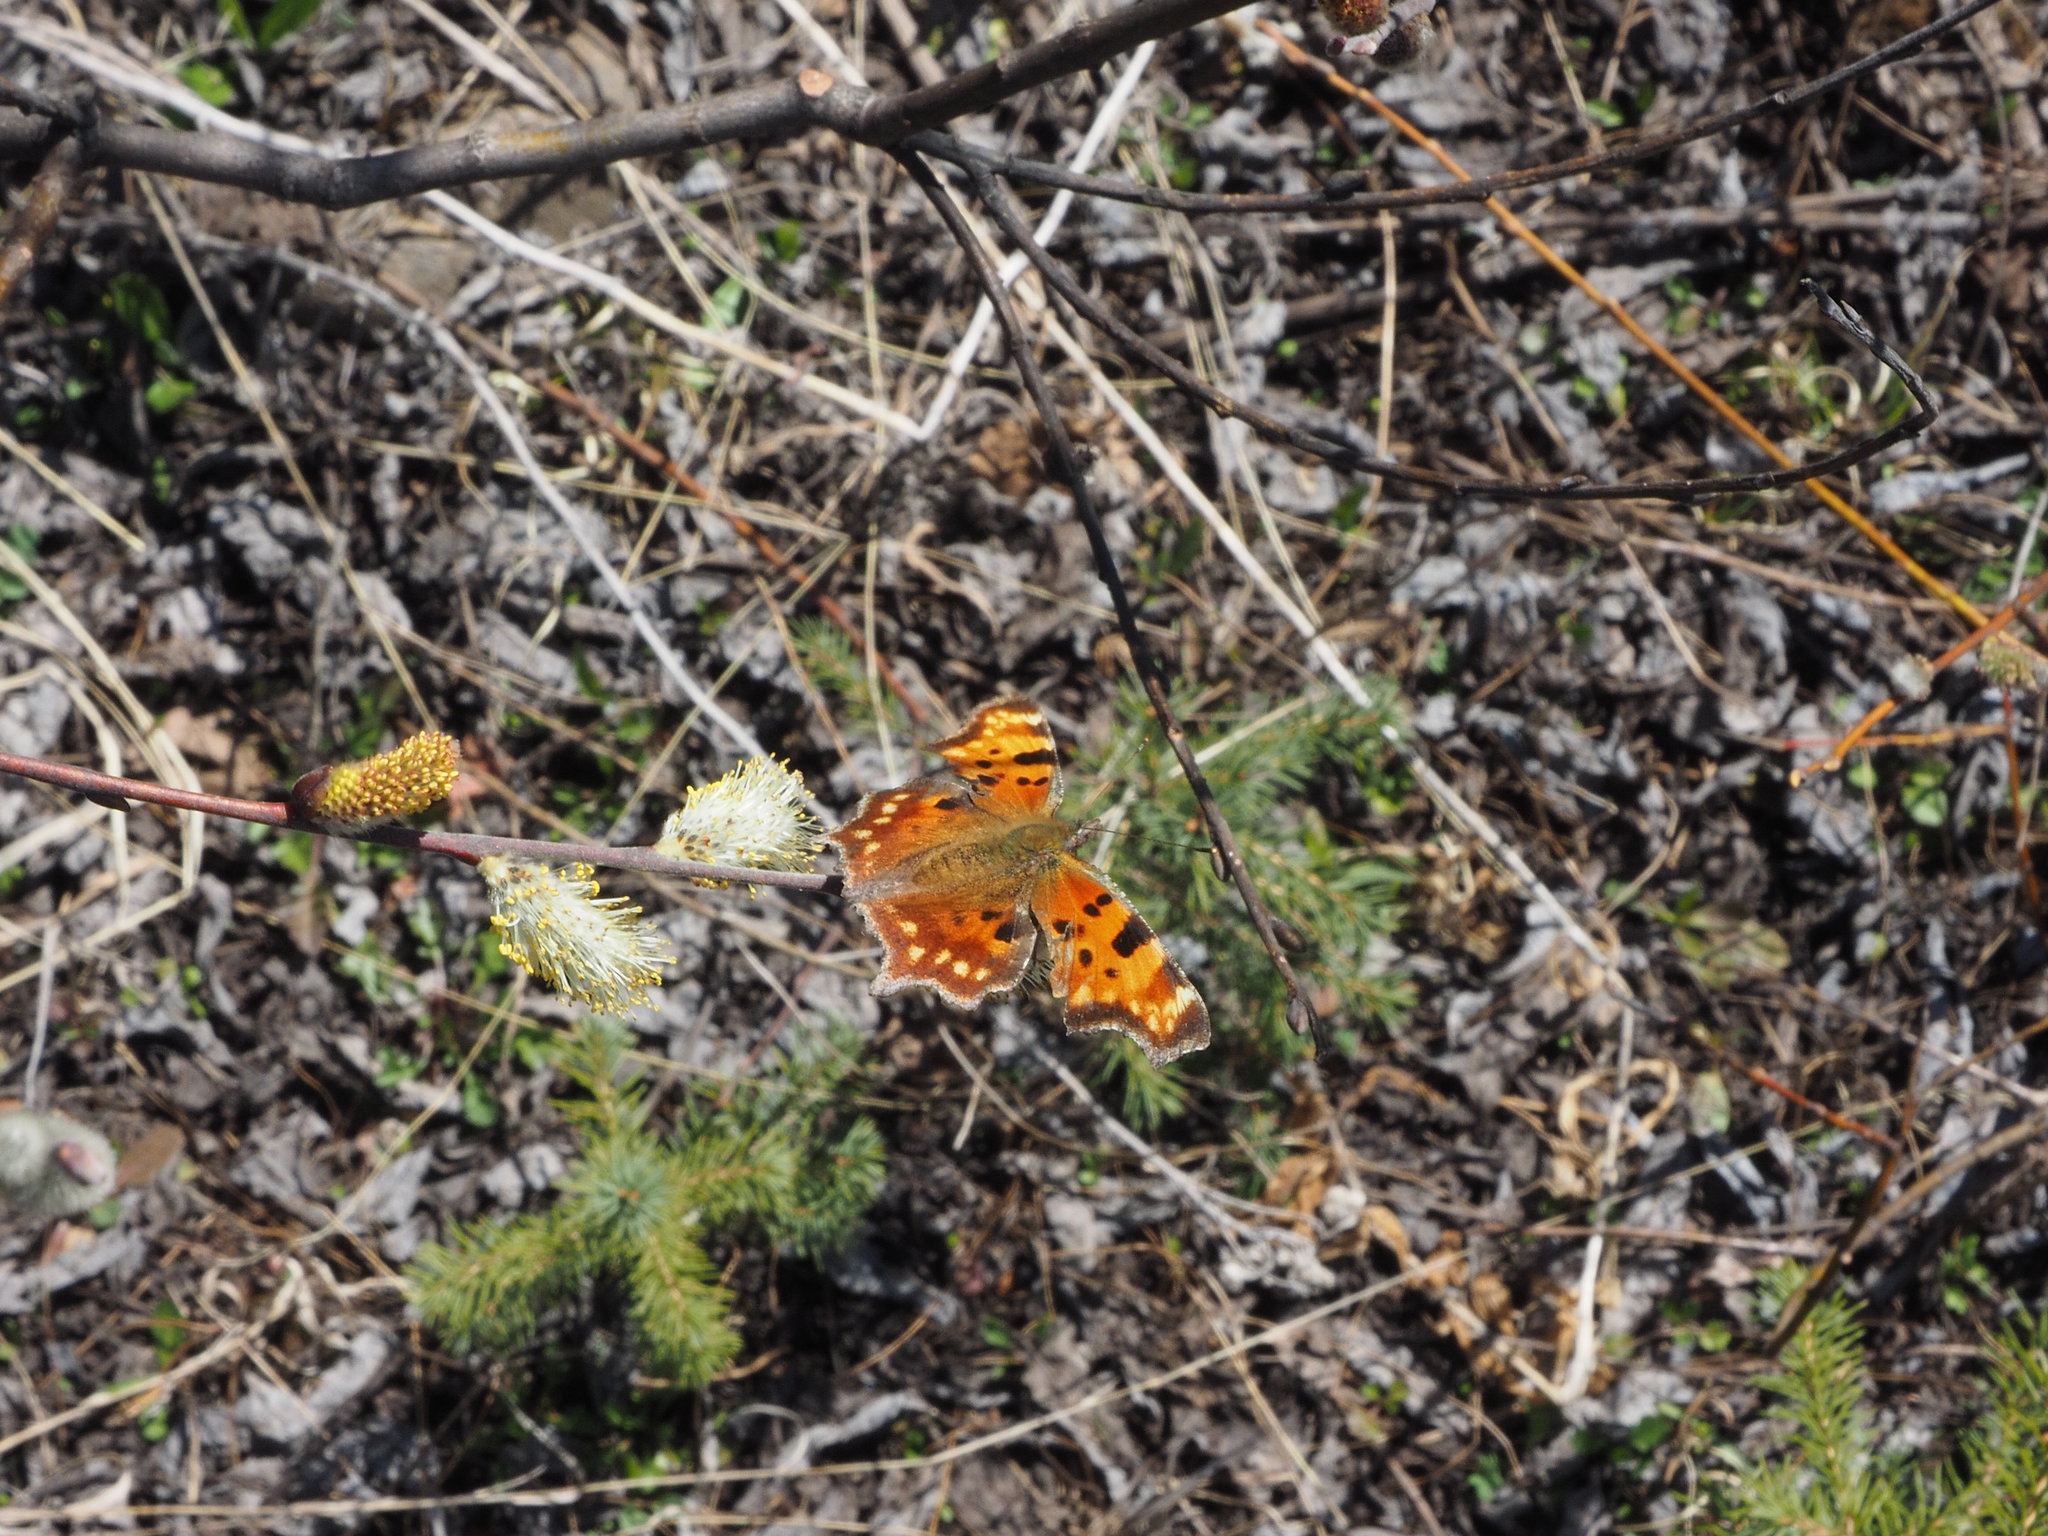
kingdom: Animalia
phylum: Arthropoda
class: Insecta
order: Lepidoptera
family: Nymphalidae
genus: Polygonia
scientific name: Polygonia faunus
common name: Green comma
